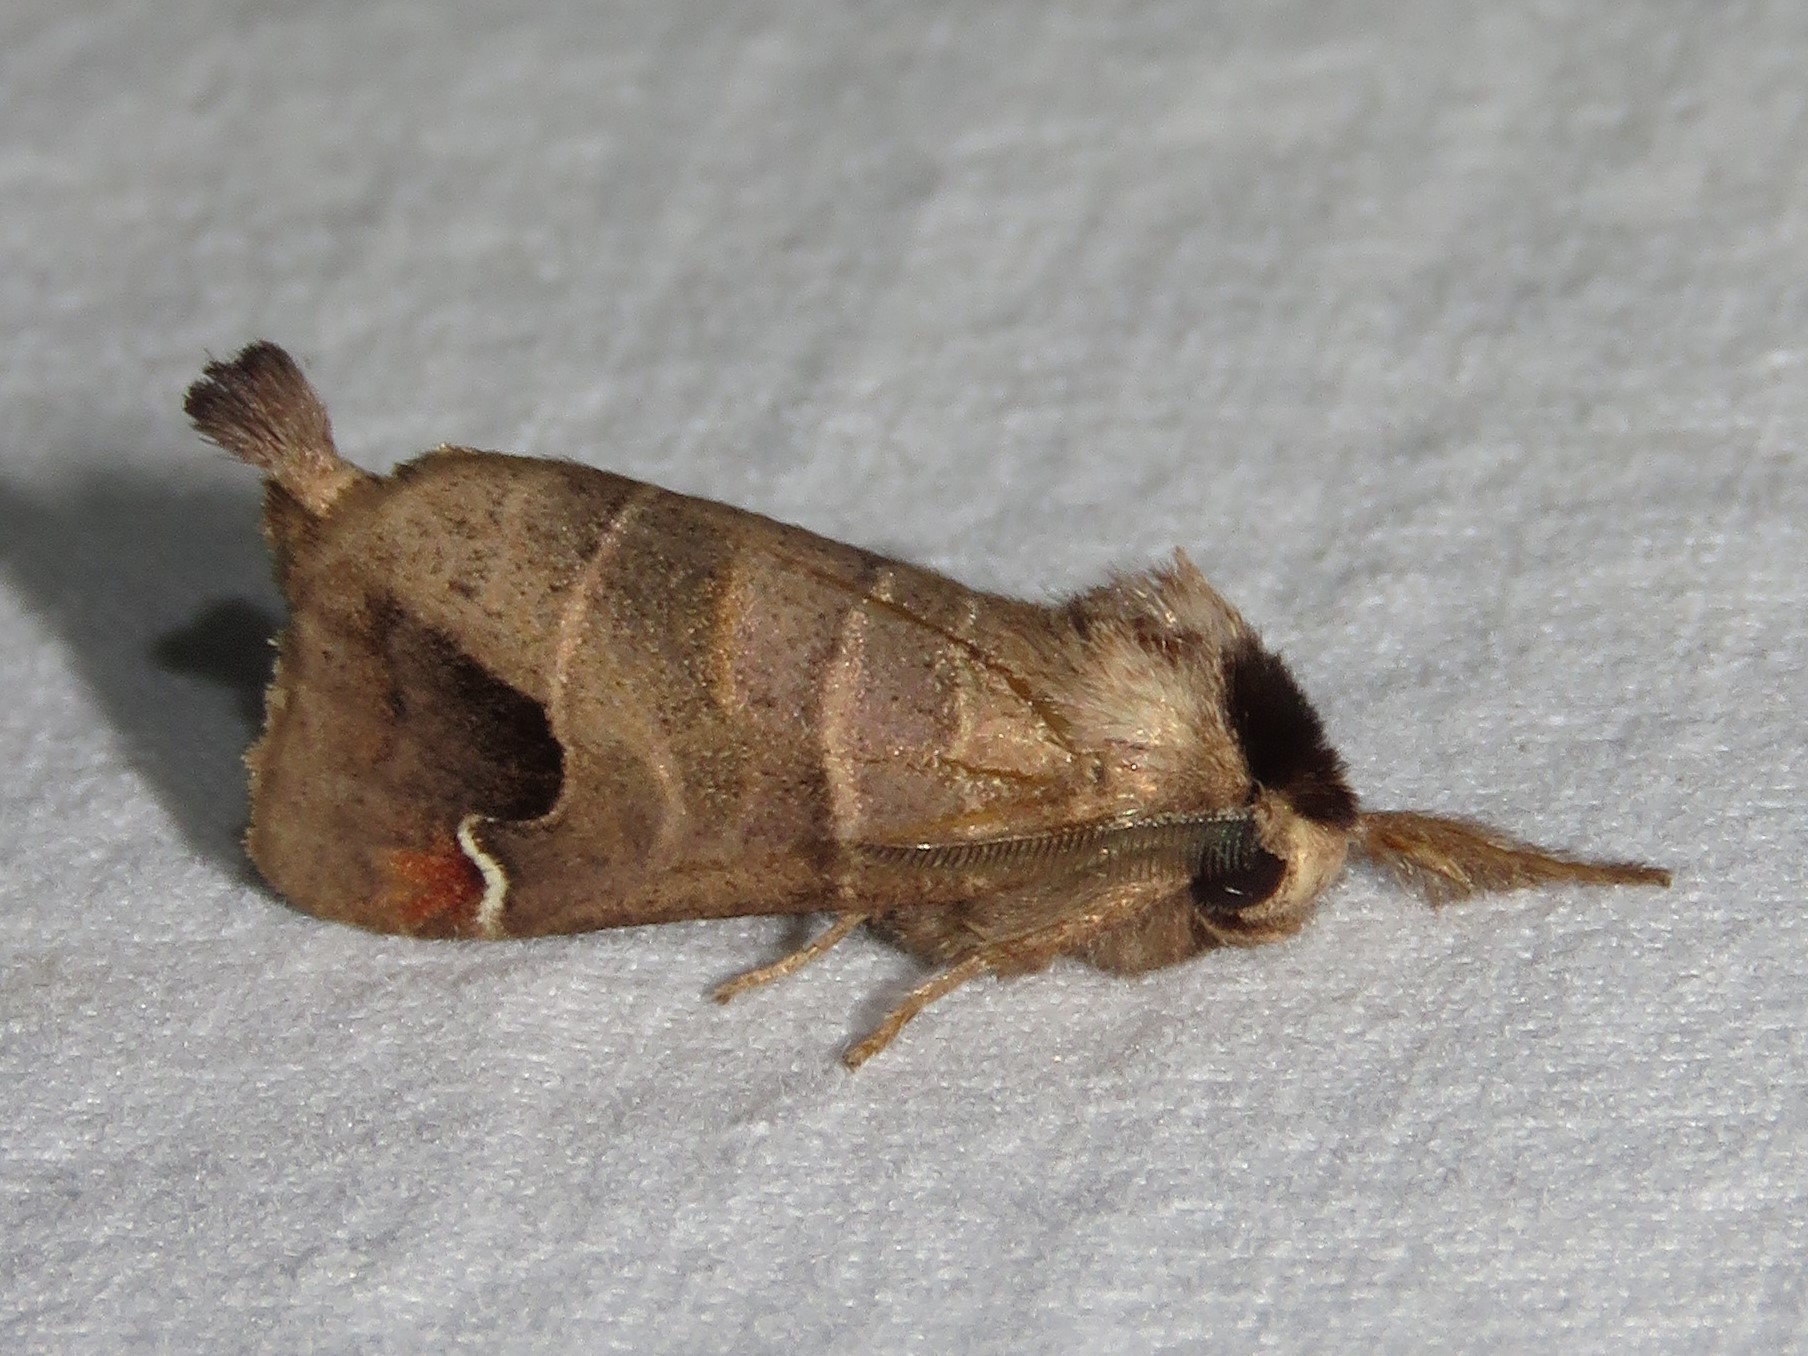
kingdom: Animalia
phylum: Arthropoda
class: Insecta
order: Lepidoptera
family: Notodontidae
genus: Clostera
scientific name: Clostera albosigma
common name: Sigmoid prominent
